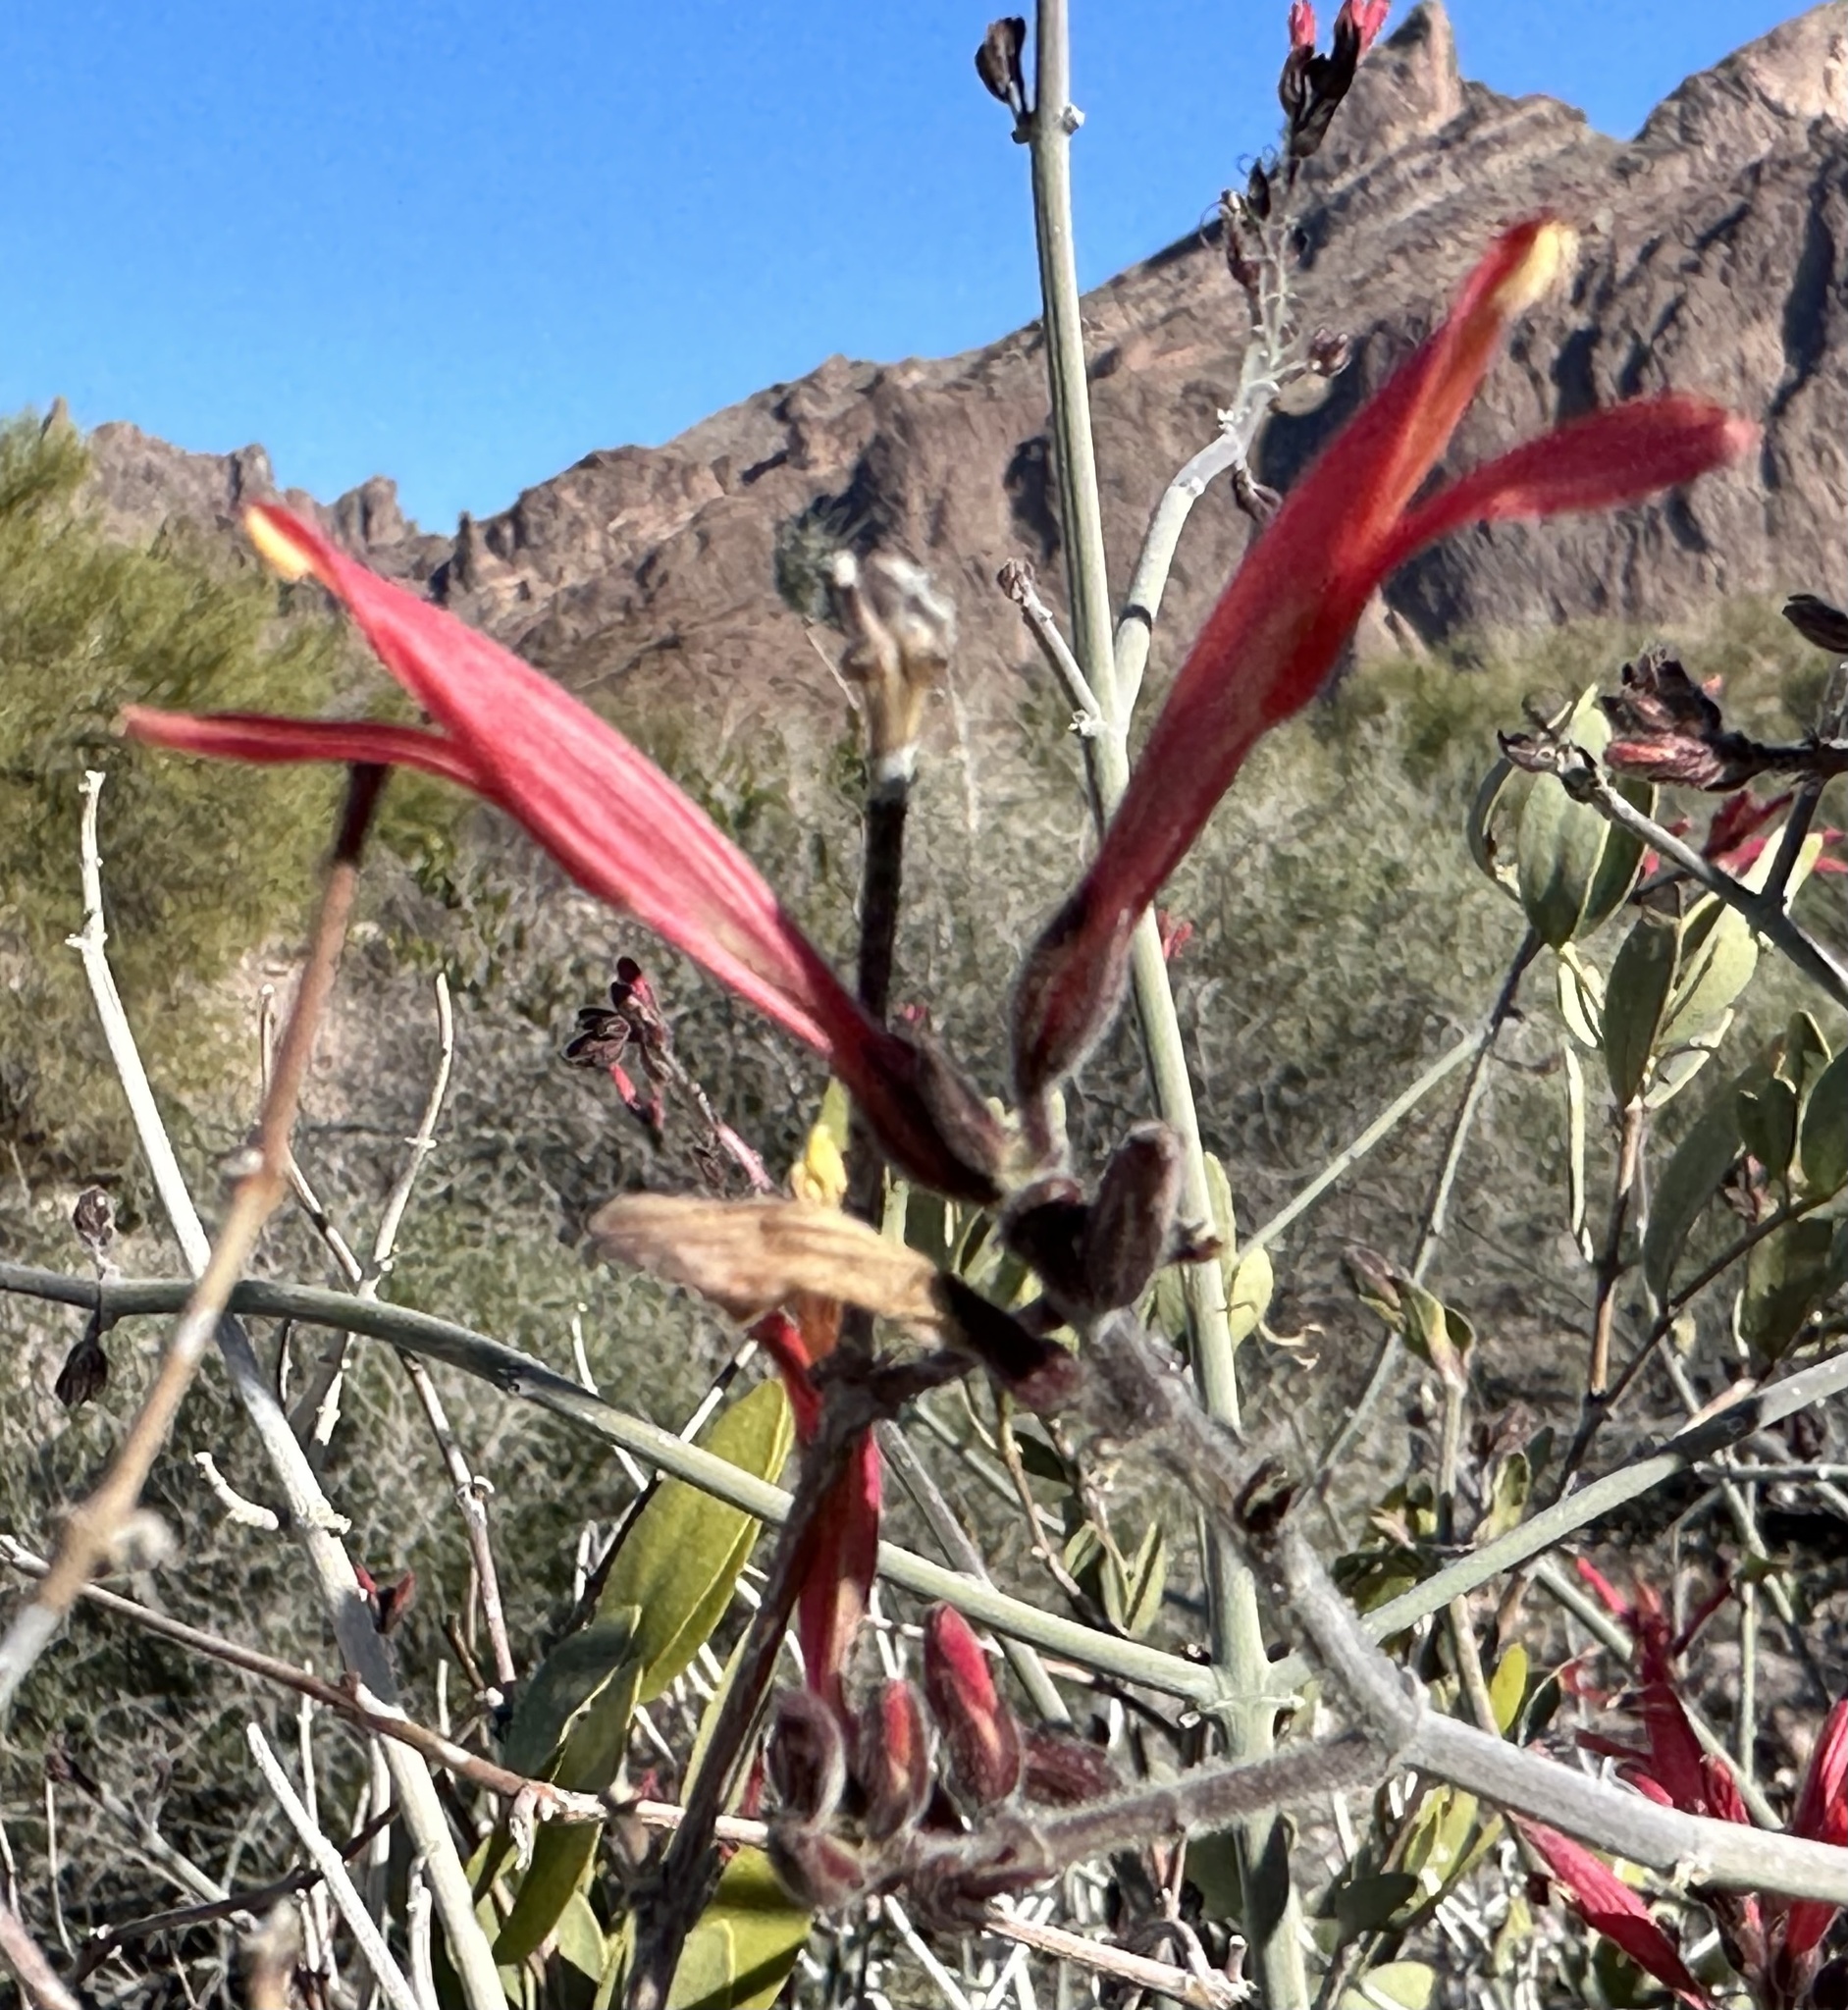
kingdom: Plantae
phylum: Tracheophyta
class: Magnoliopsida
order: Lamiales
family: Acanthaceae
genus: Justicia
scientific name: Justicia californica
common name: Chuparosa-honeysuckle
